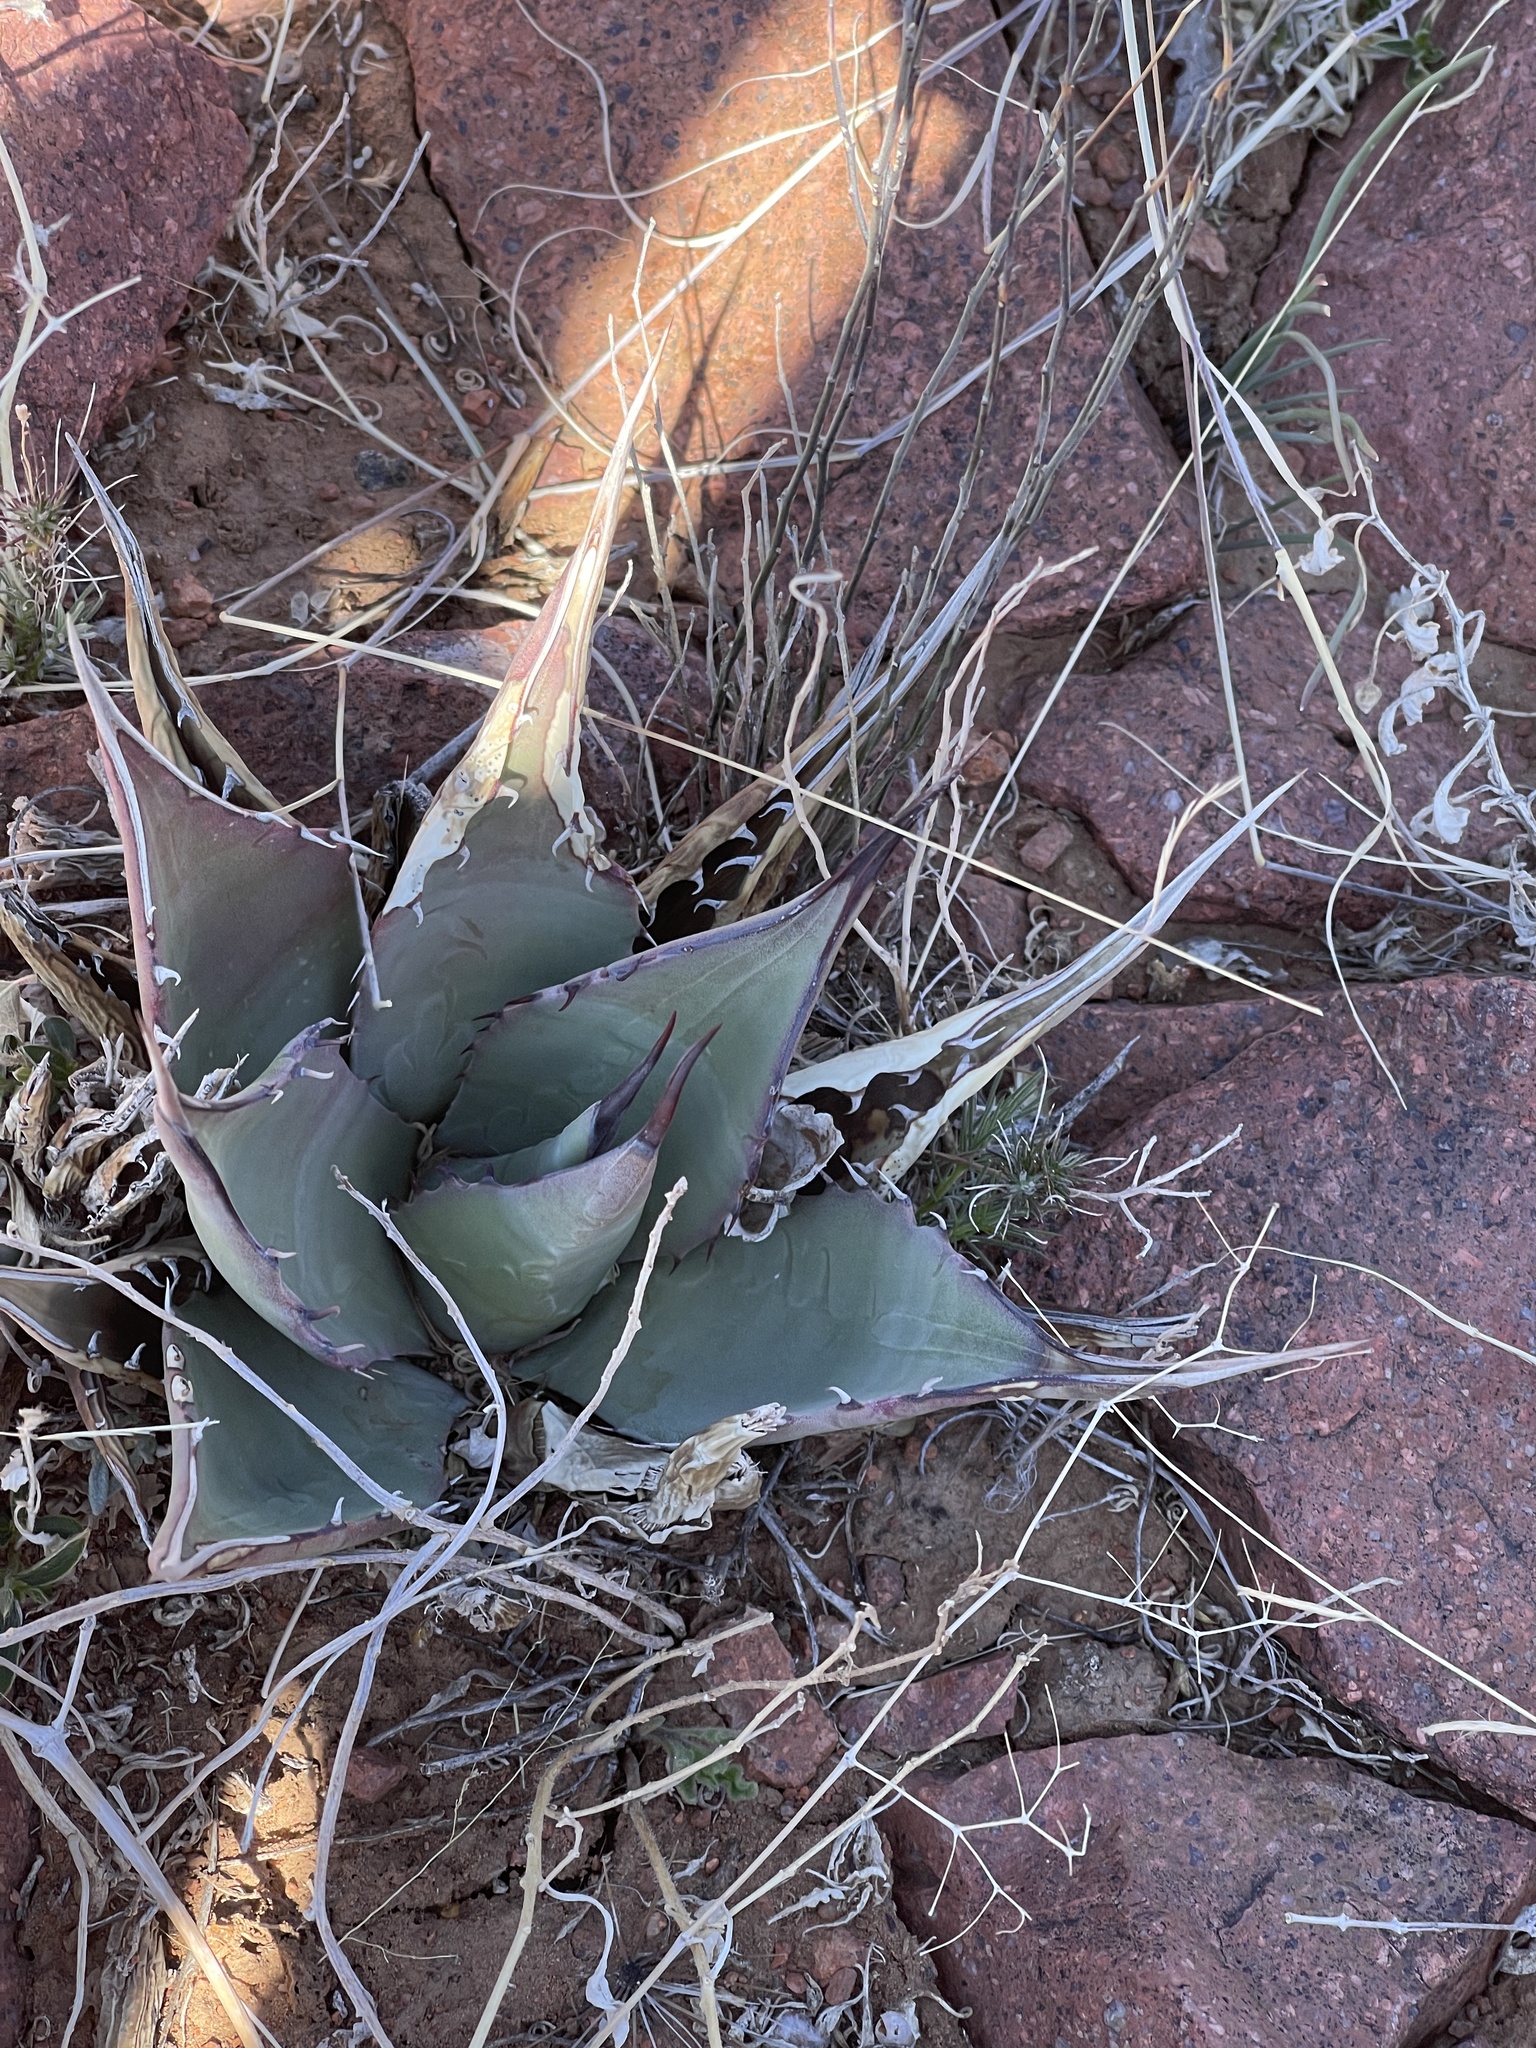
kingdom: Plantae
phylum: Tracheophyta
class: Liliopsida
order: Asparagales
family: Asparagaceae
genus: Agave
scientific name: Agave parryi
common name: Parry's agave
